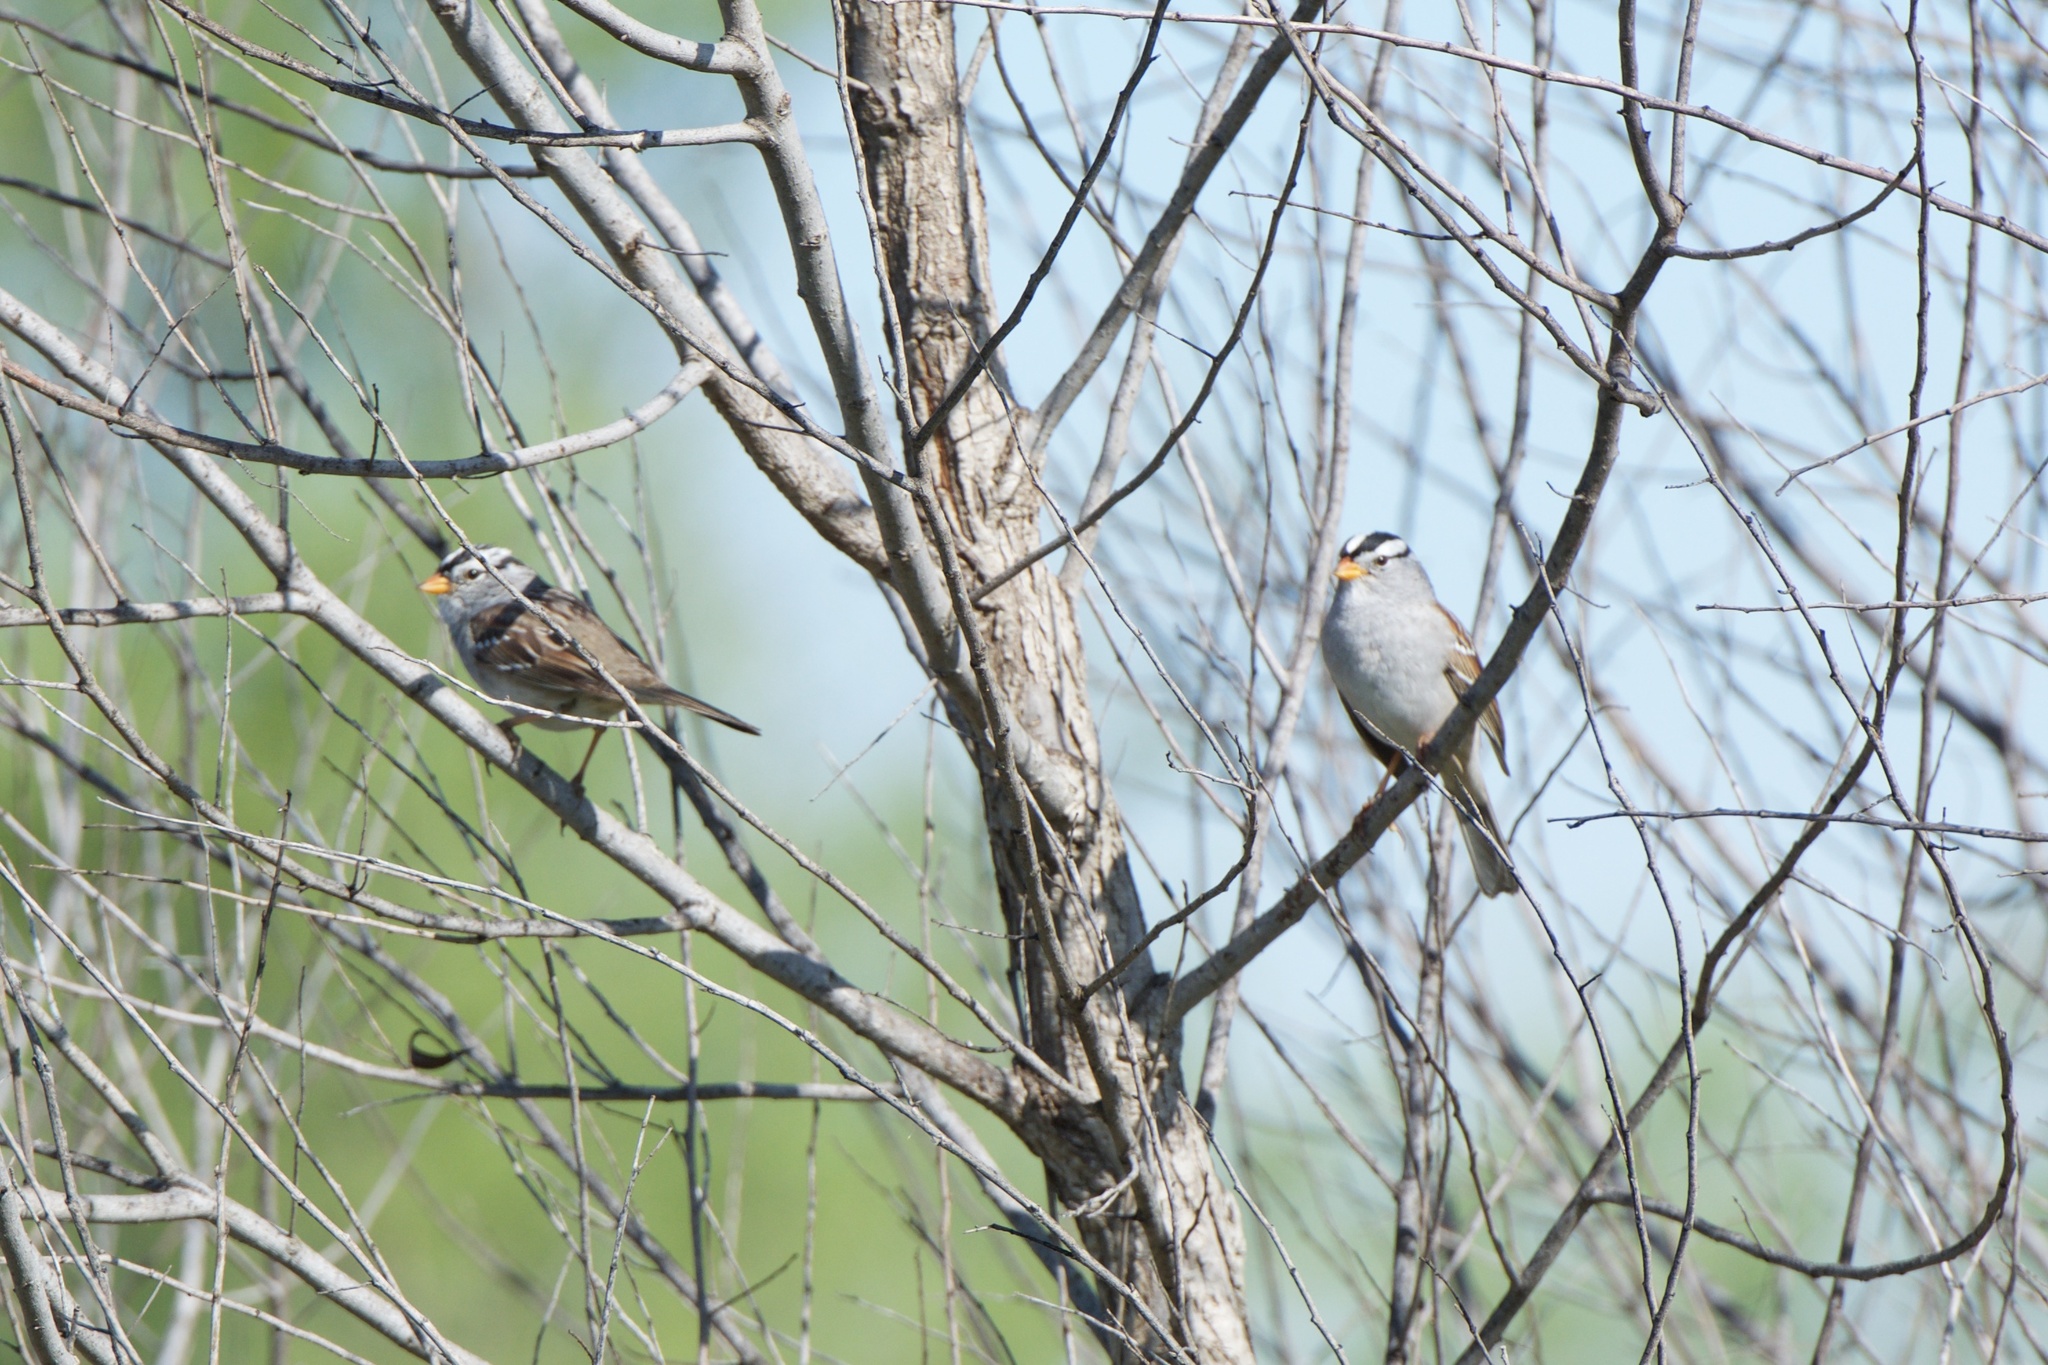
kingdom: Animalia
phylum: Chordata
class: Aves
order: Passeriformes
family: Passerellidae
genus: Zonotrichia
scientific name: Zonotrichia leucophrys
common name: White-crowned sparrow
